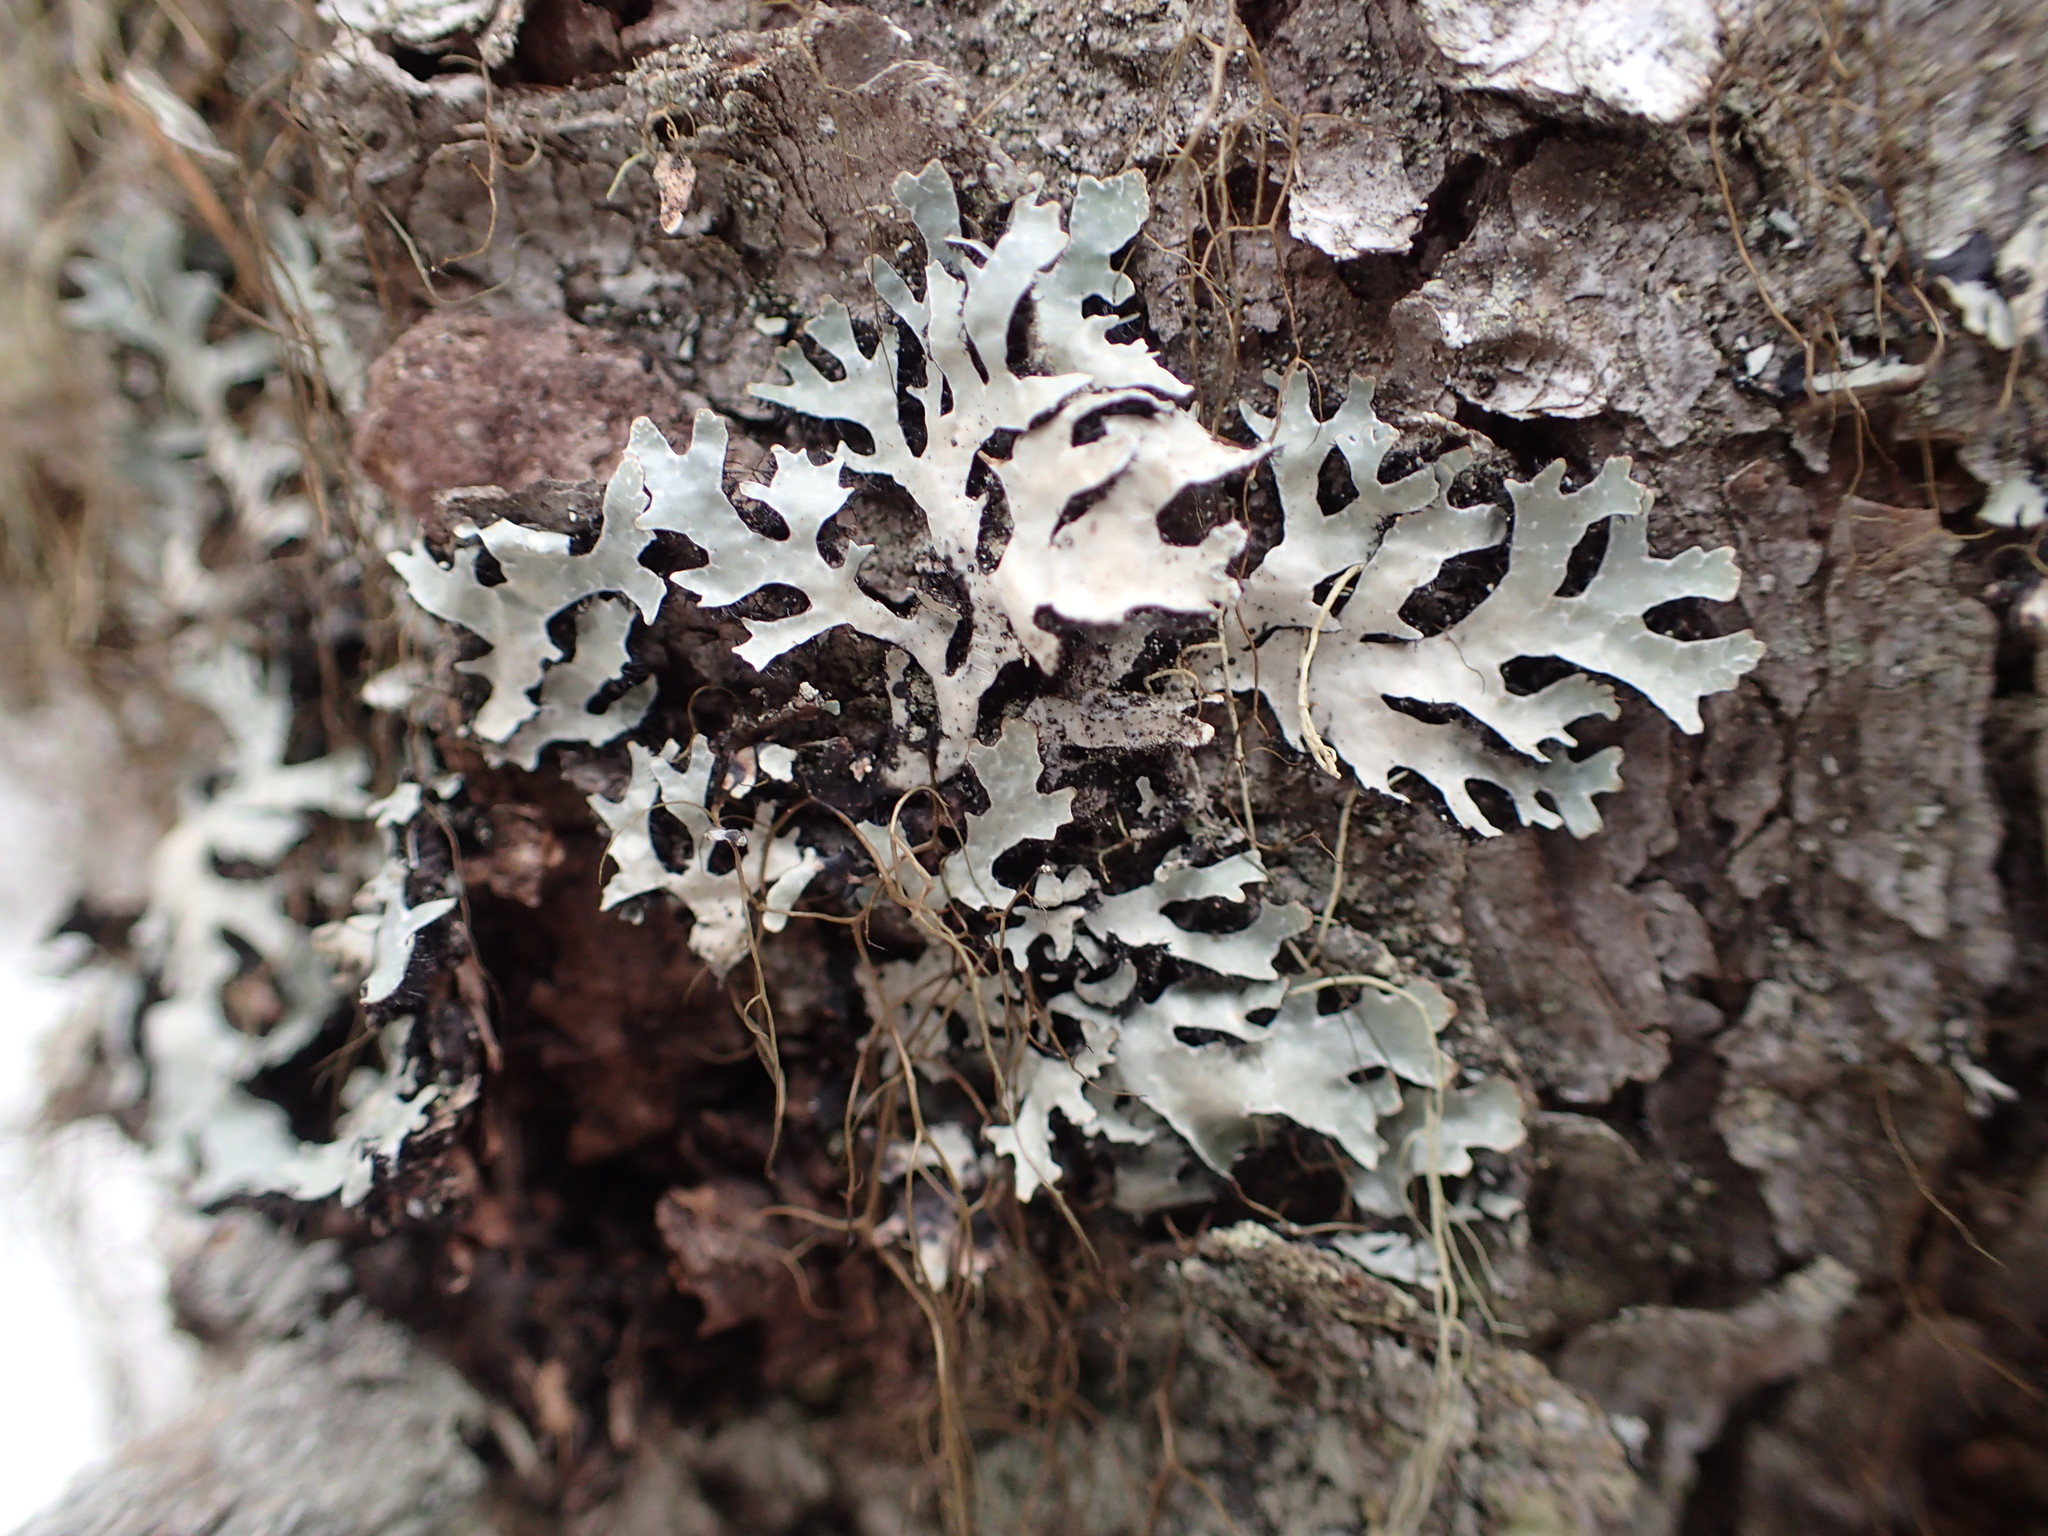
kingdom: Fungi
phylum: Ascomycota
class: Lecanoromycetes
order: Lecanorales
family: Parmeliaceae
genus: Parmelia
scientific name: Parmelia sulcata
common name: Netted shield lichen
